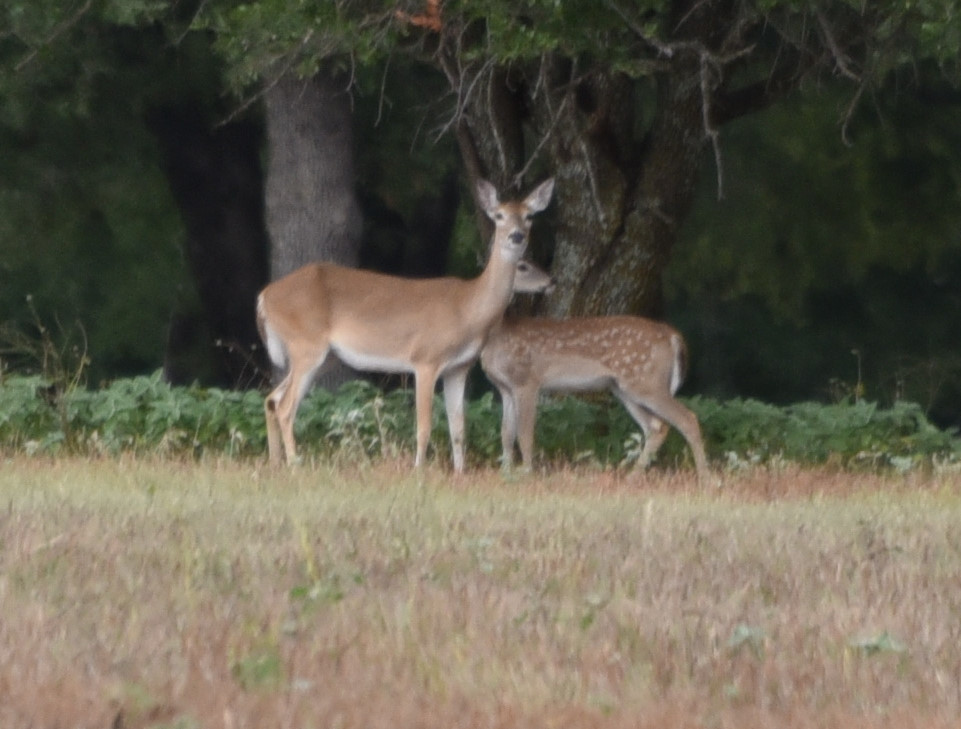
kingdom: Animalia
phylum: Chordata
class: Mammalia
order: Artiodactyla
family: Cervidae
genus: Odocoileus
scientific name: Odocoileus virginianus
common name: White-tailed deer
